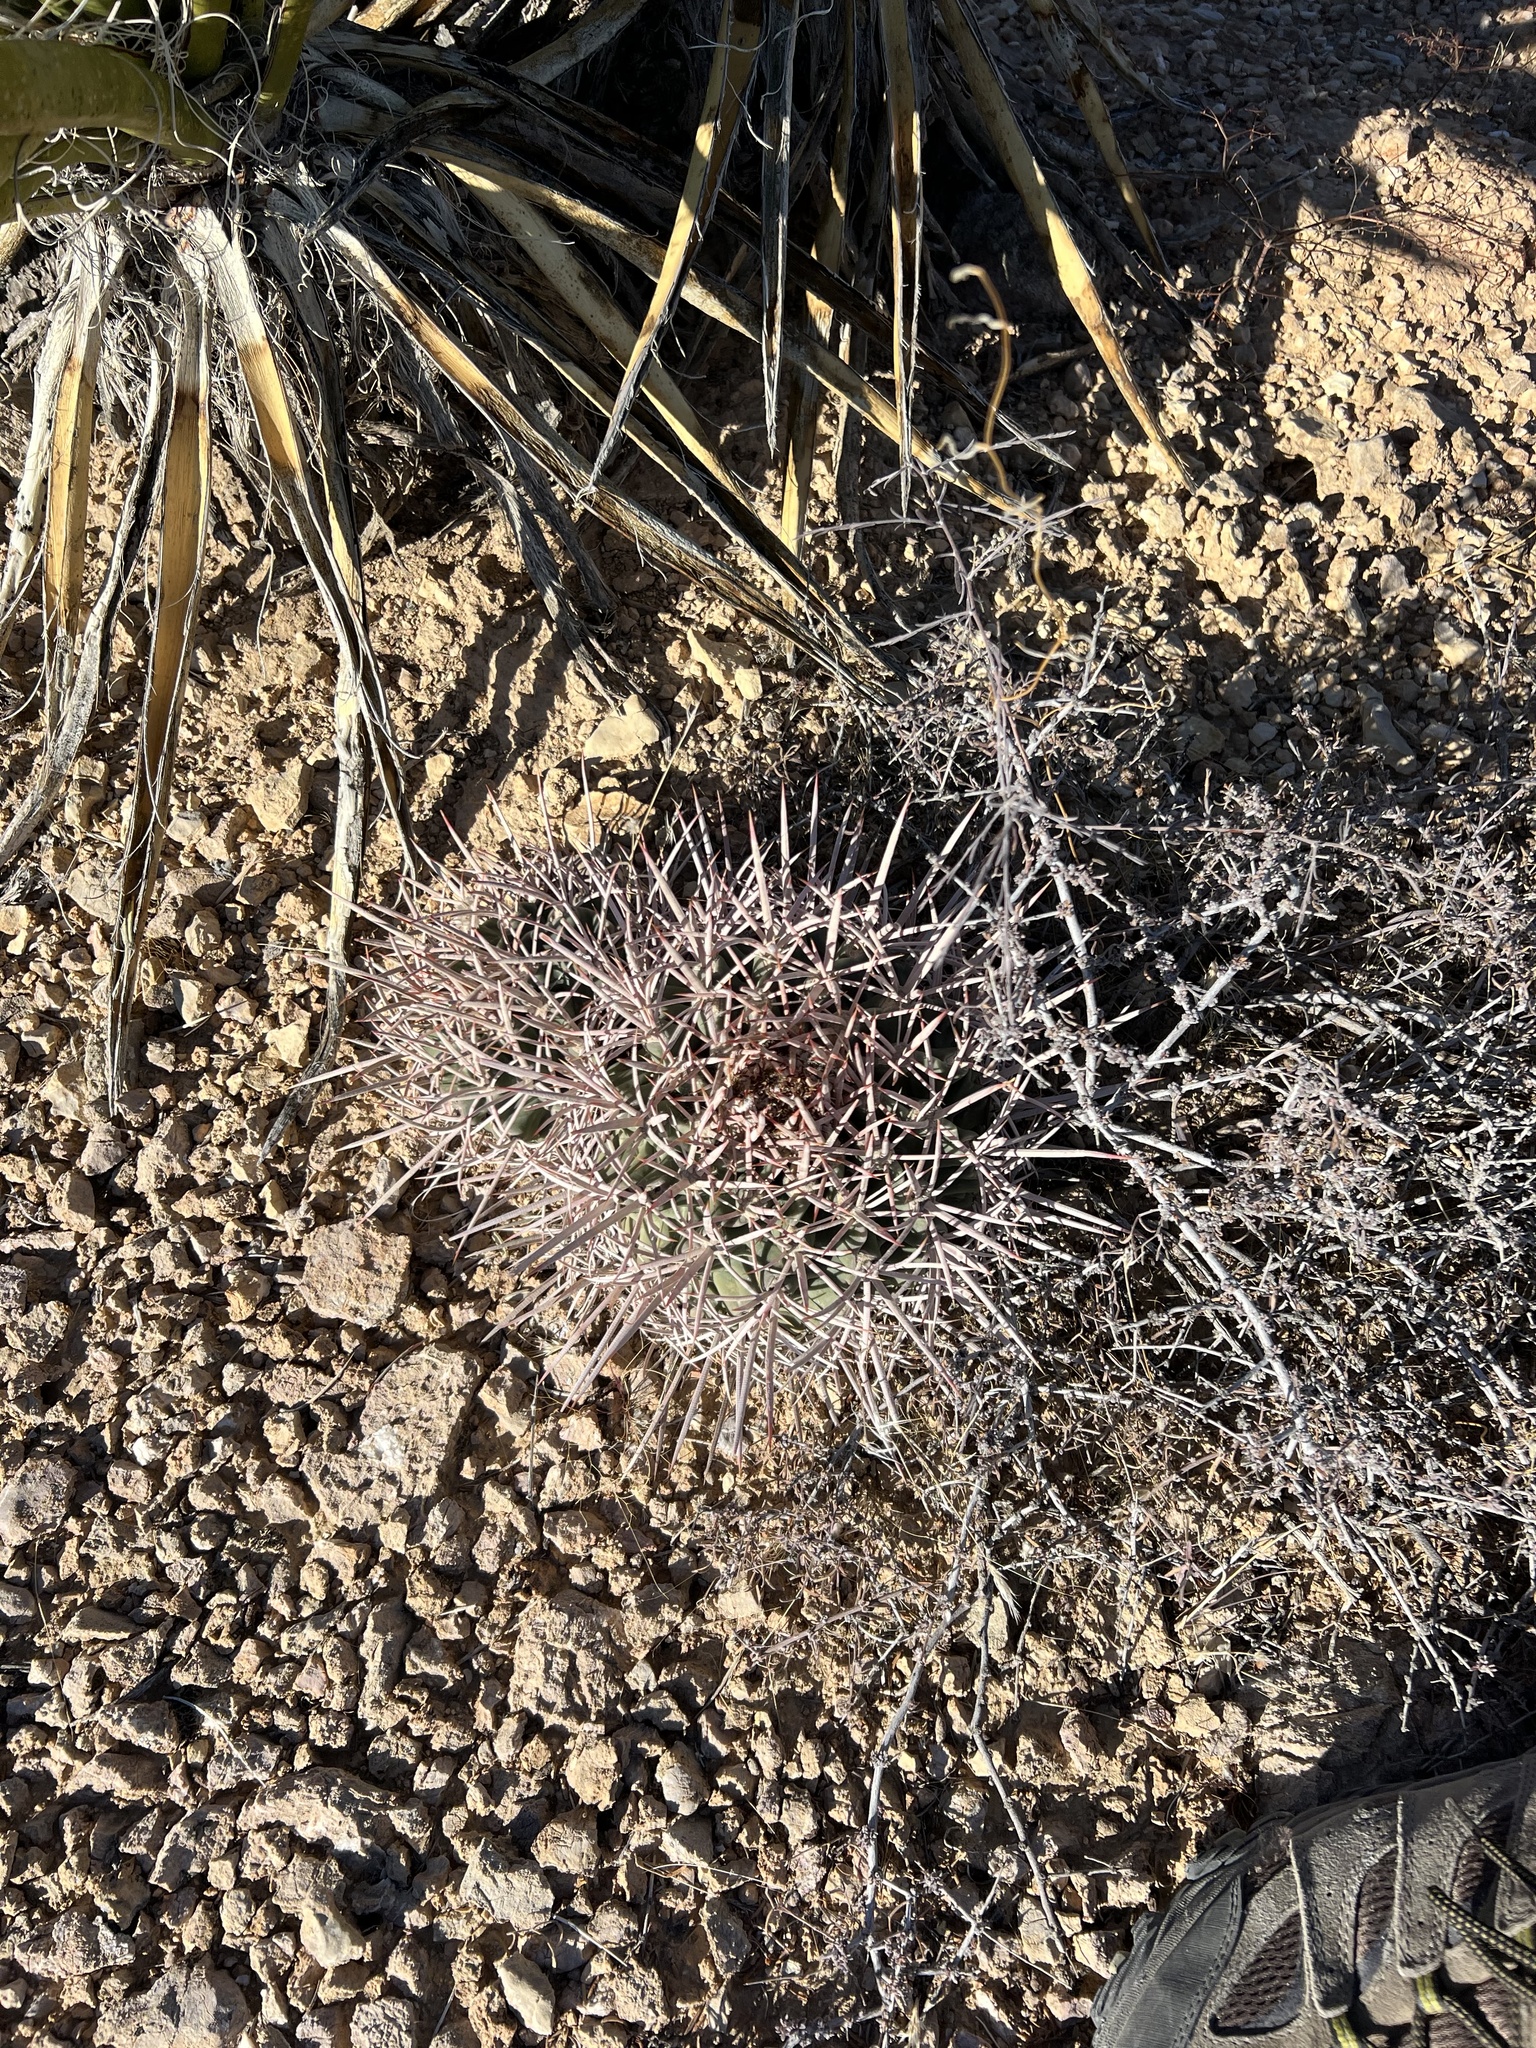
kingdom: Plantae
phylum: Tracheophyta
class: Magnoliopsida
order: Caryophyllales
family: Cactaceae
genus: Echinocactus
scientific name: Echinocactus polycephalus
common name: Cottontop cactus
